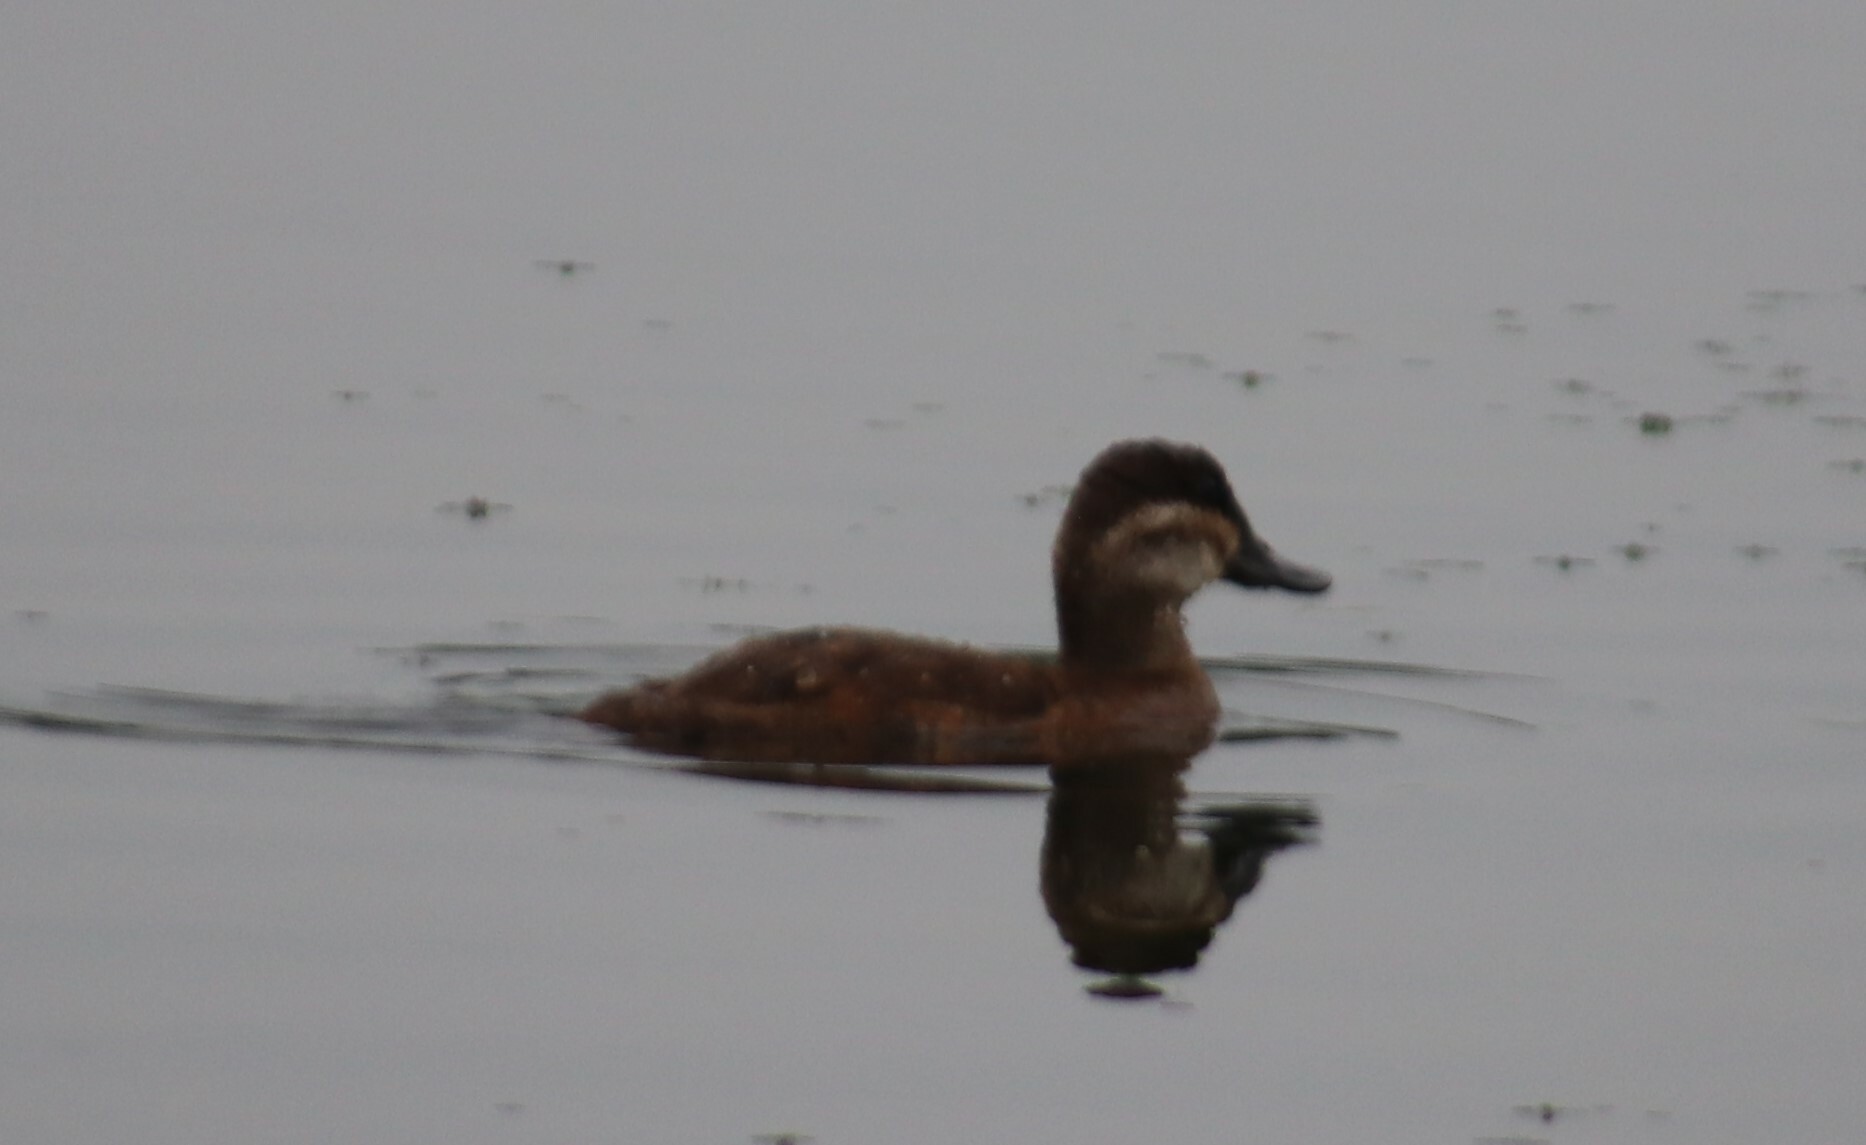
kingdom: Animalia
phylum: Chordata
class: Aves
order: Anseriformes
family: Anatidae
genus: Oxyura
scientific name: Oxyura jamaicensis
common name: Ruddy duck
